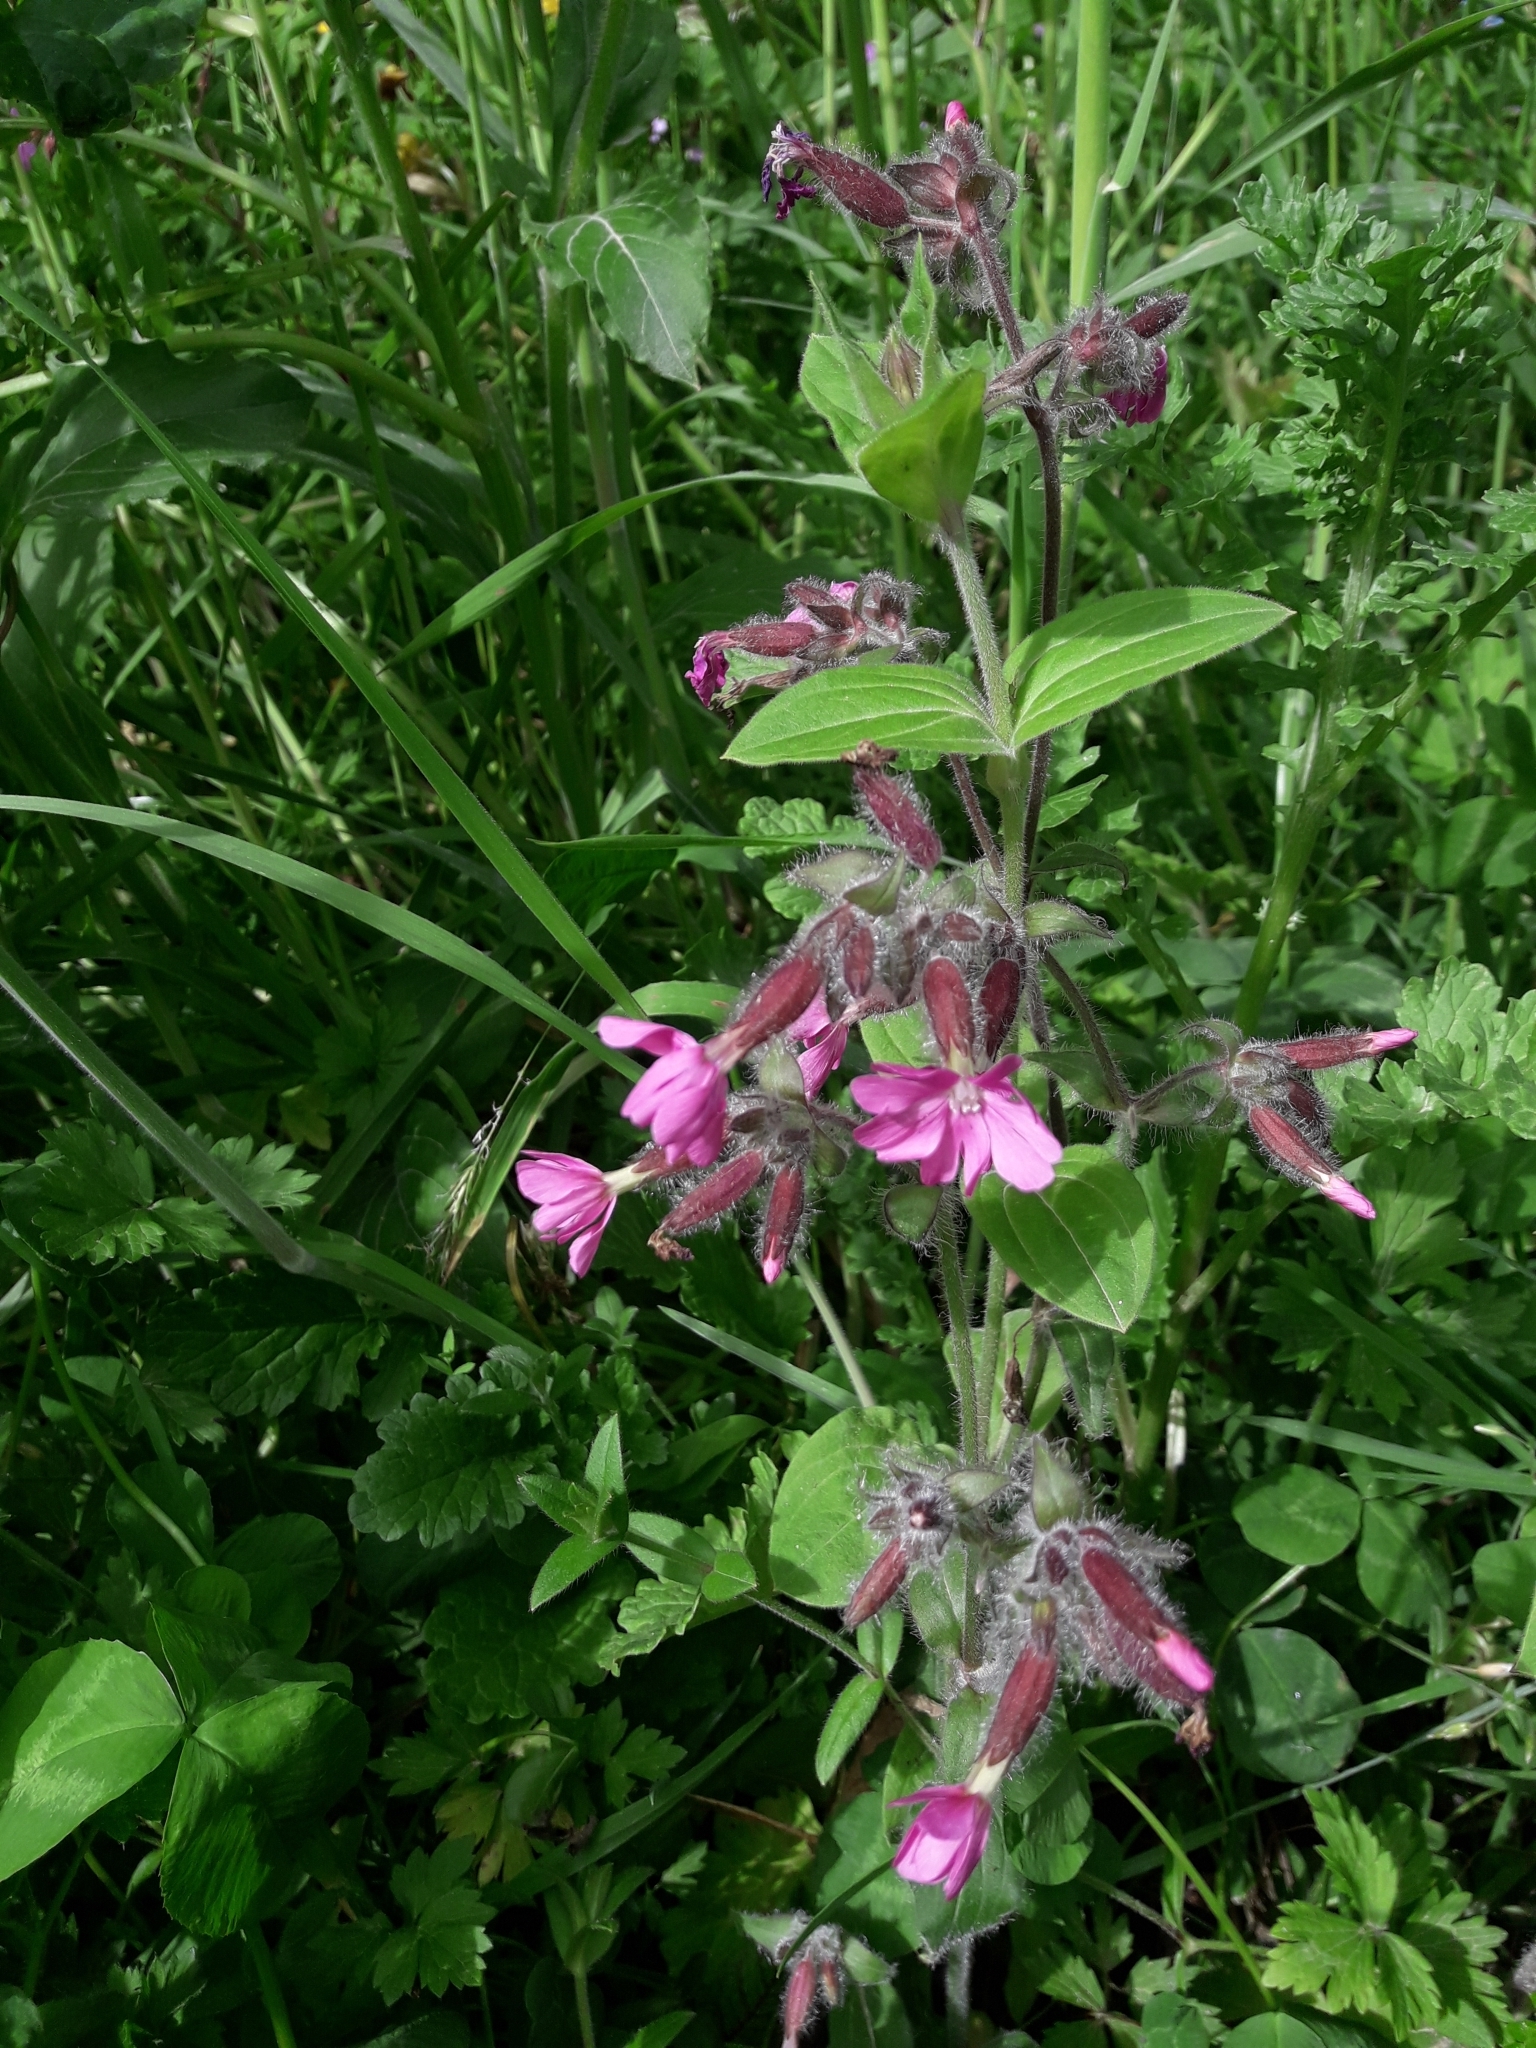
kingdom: Plantae
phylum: Tracheophyta
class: Magnoliopsida
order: Caryophyllales
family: Caryophyllaceae
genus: Silene
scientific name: Silene dioica
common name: Red campion
